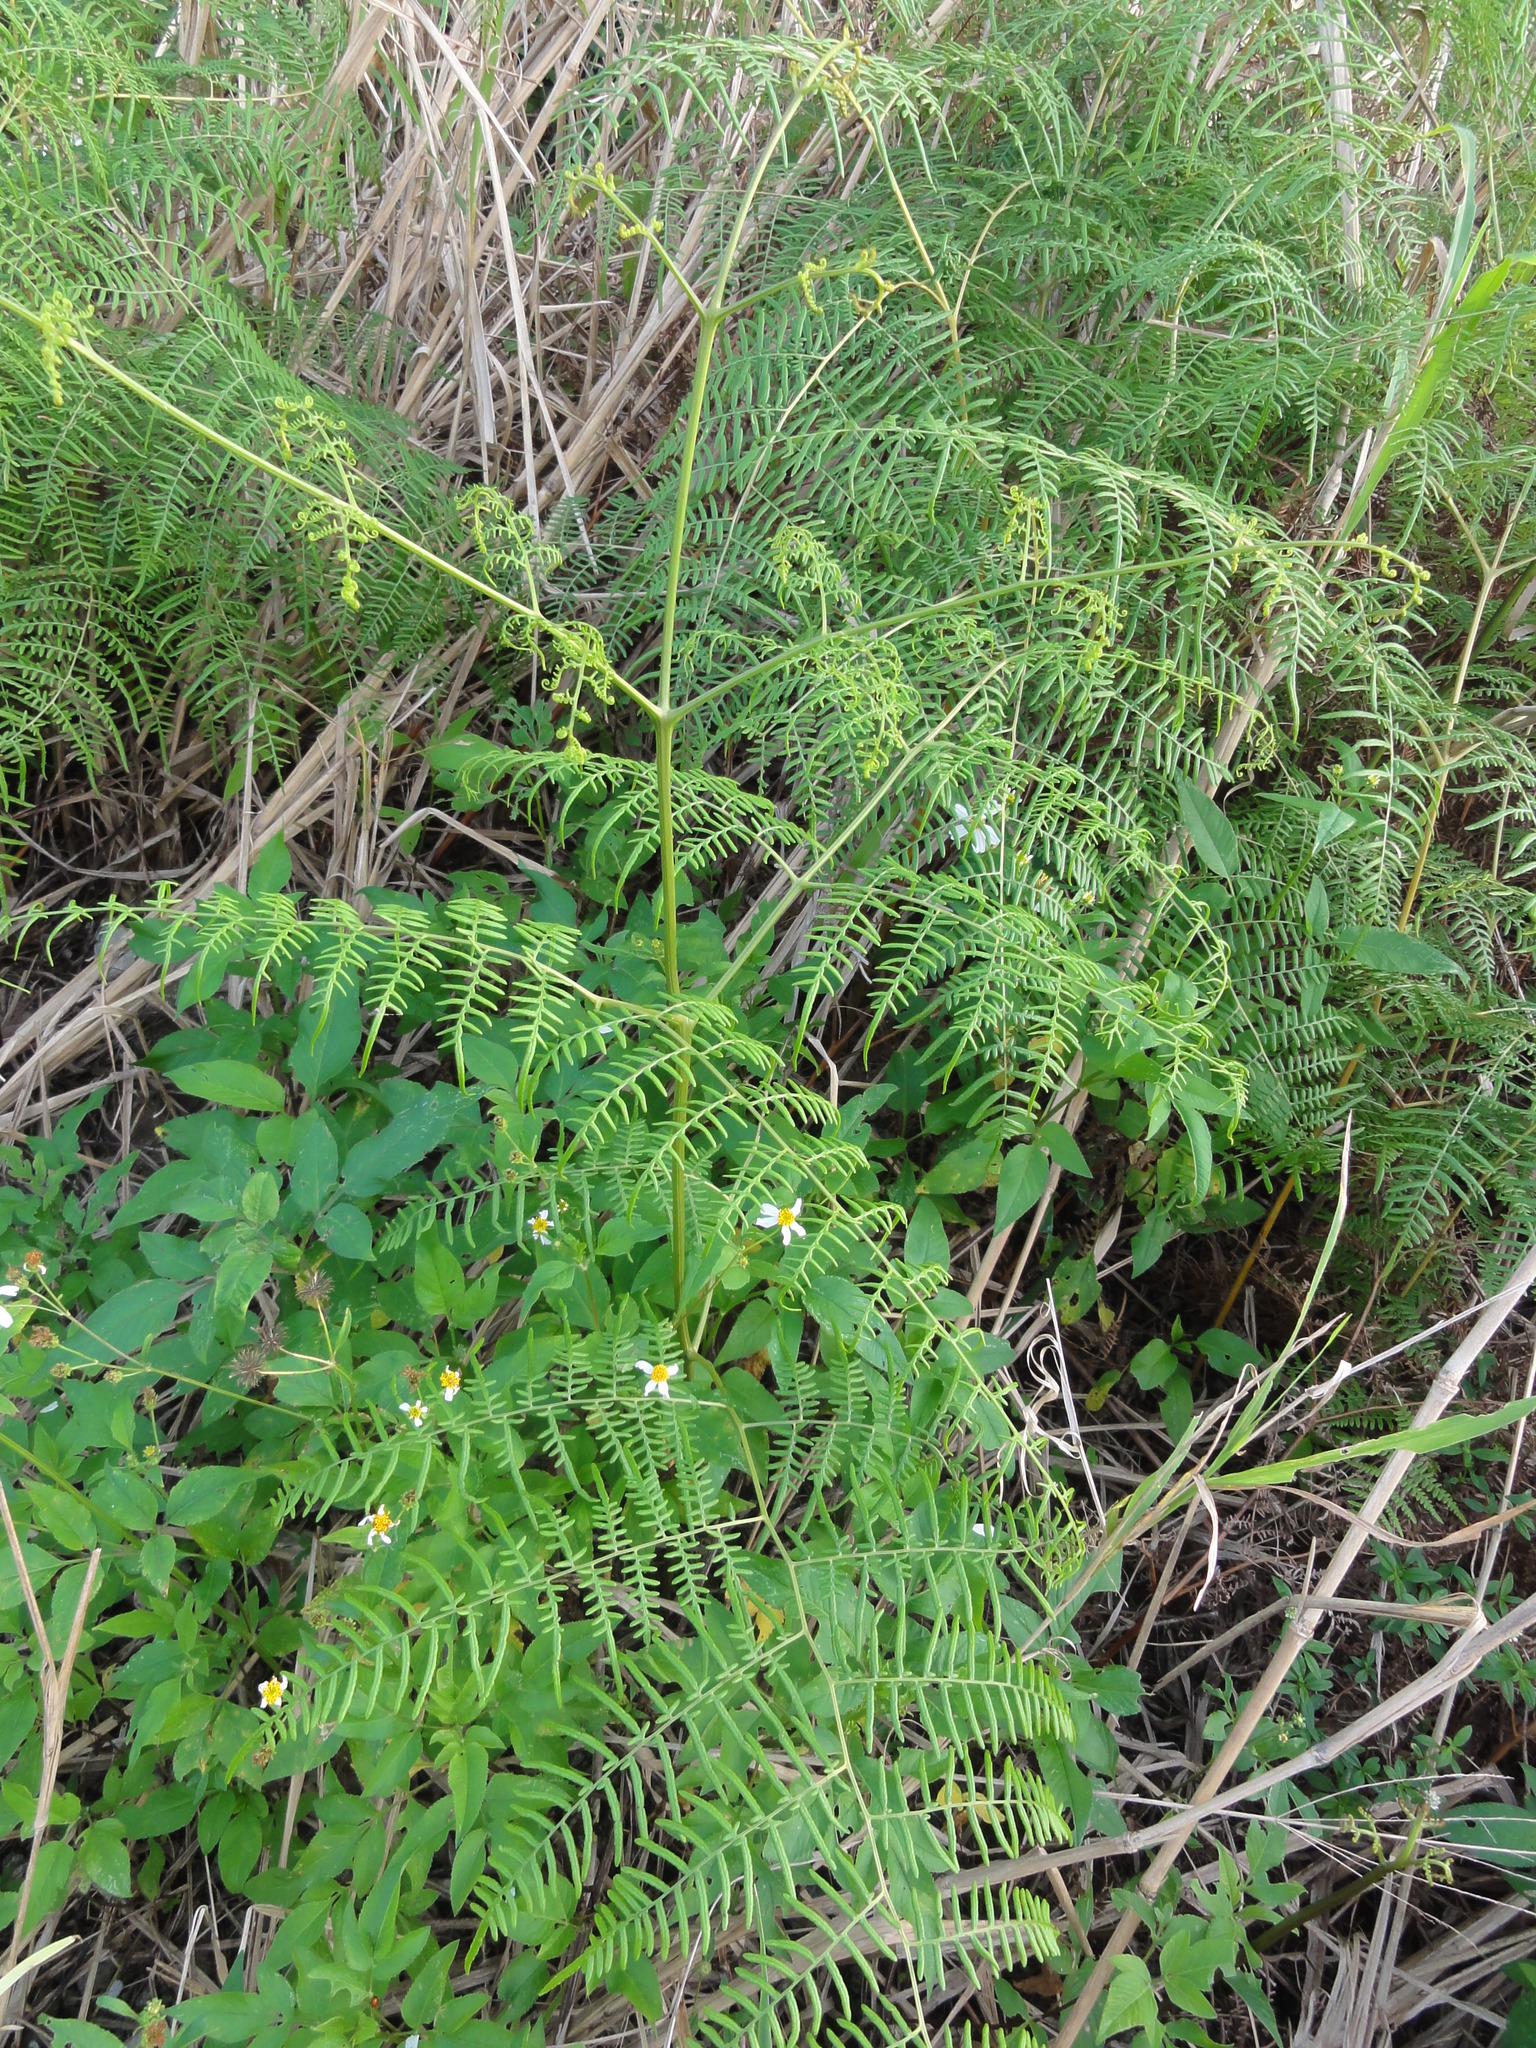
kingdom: Plantae
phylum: Tracheophyta
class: Polypodiopsida
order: Polypodiales
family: Dennstaedtiaceae
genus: Pteridium
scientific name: Pteridium
